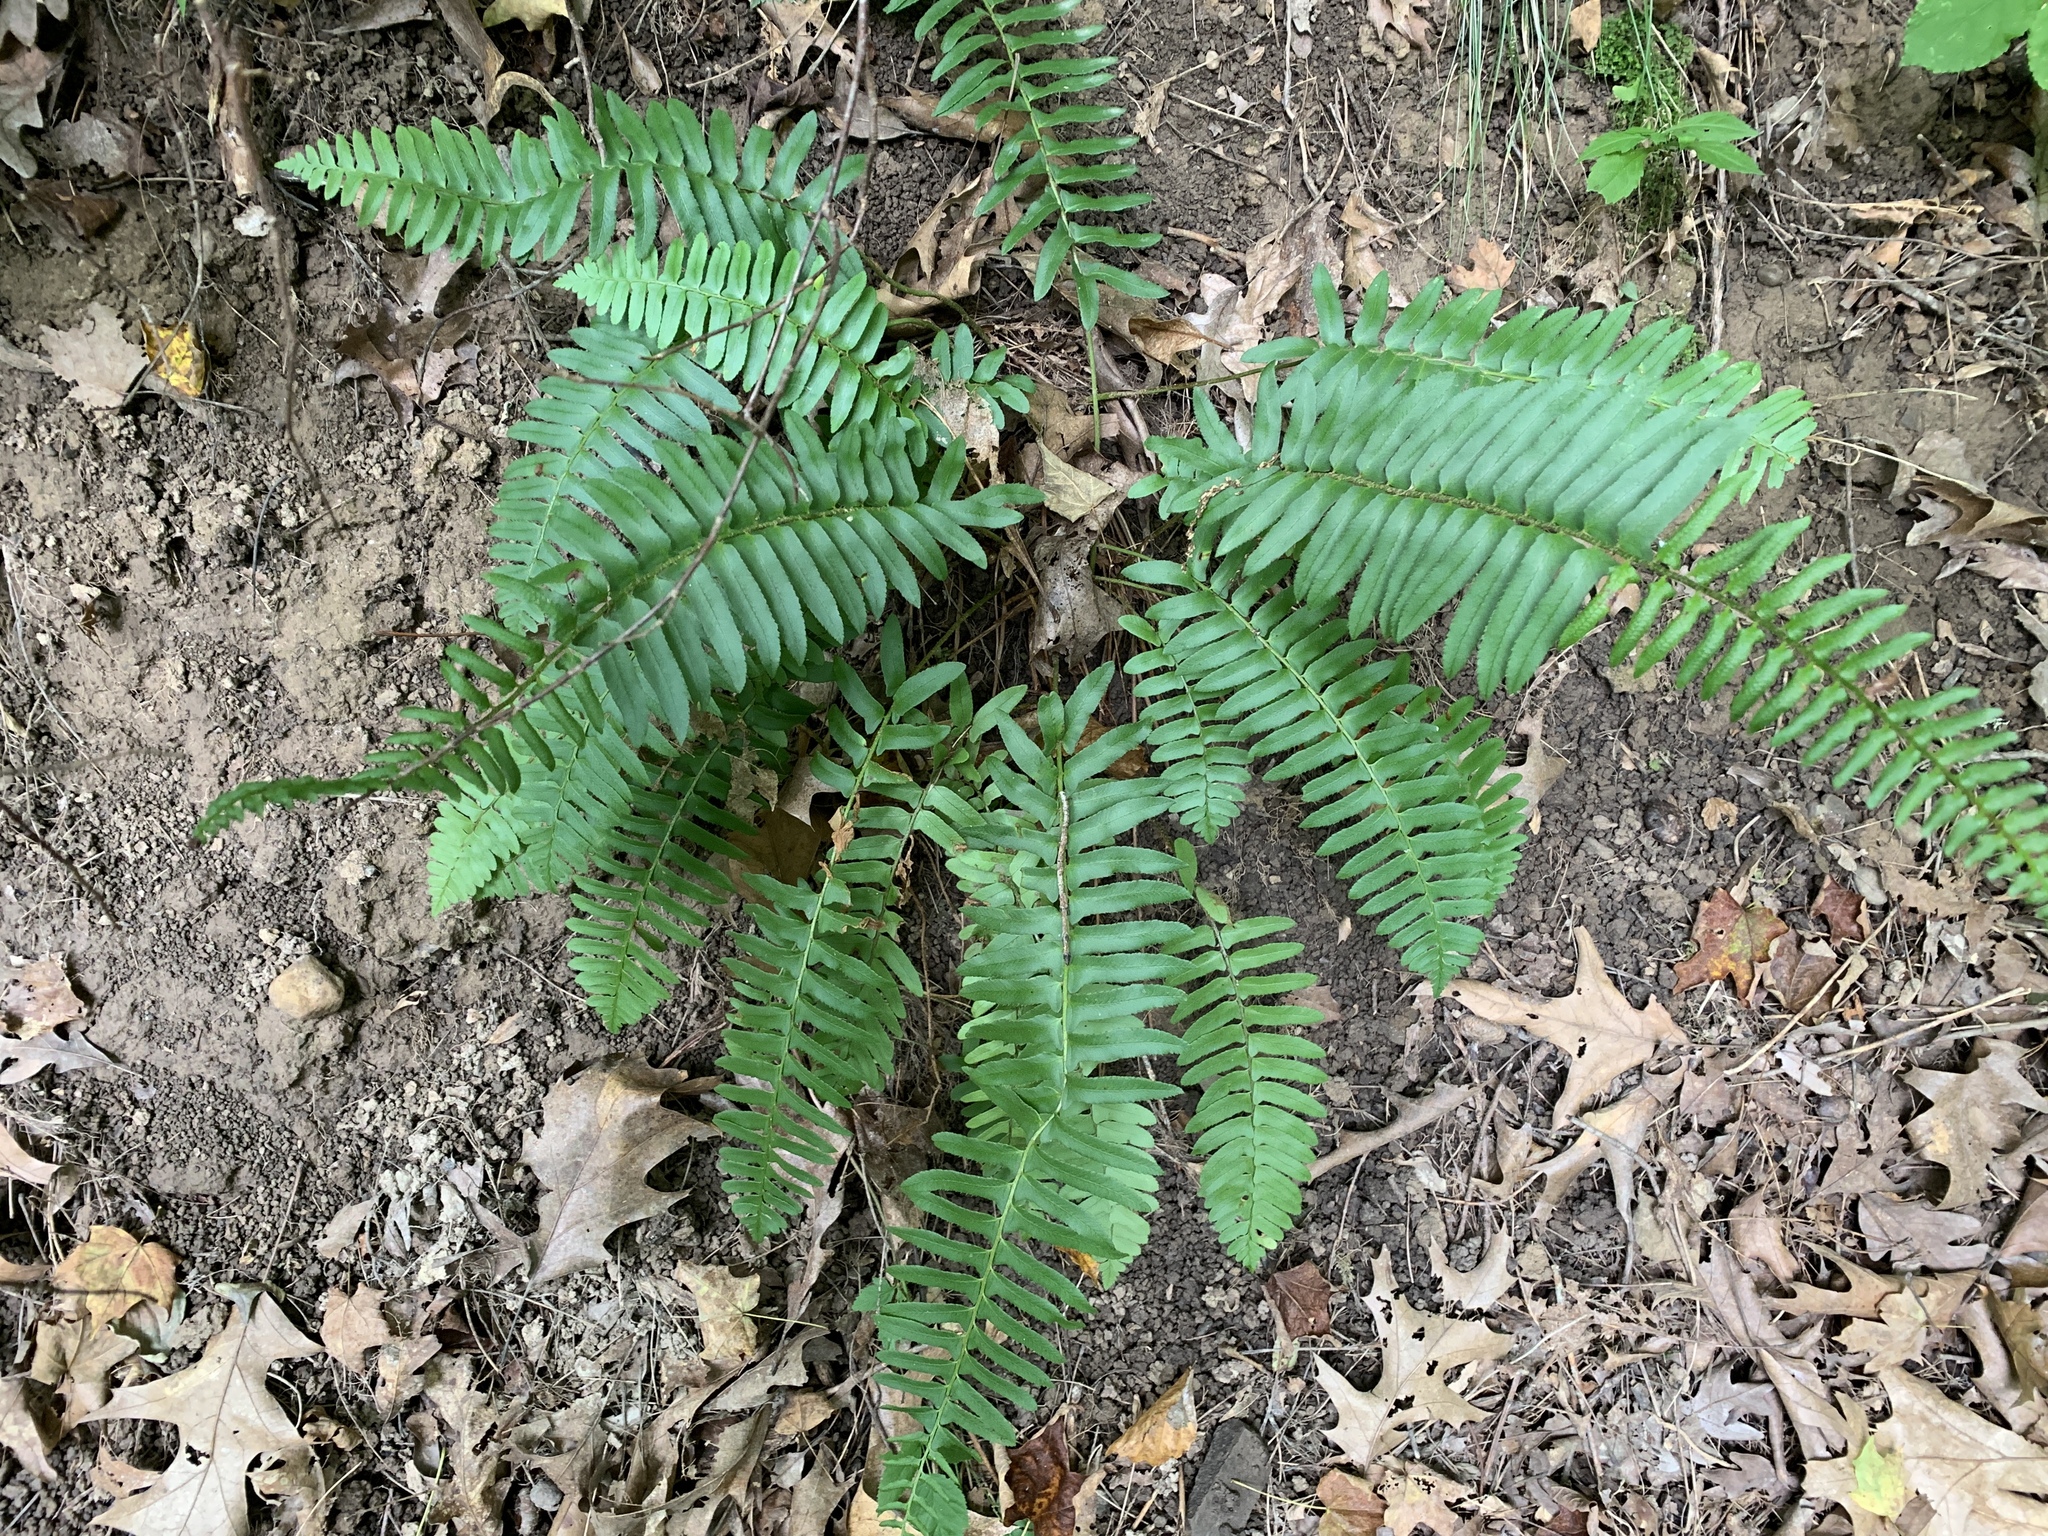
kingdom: Plantae
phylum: Tracheophyta
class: Polypodiopsida
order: Polypodiales
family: Dryopteridaceae
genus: Polystichum
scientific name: Polystichum acrostichoides
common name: Christmas fern
